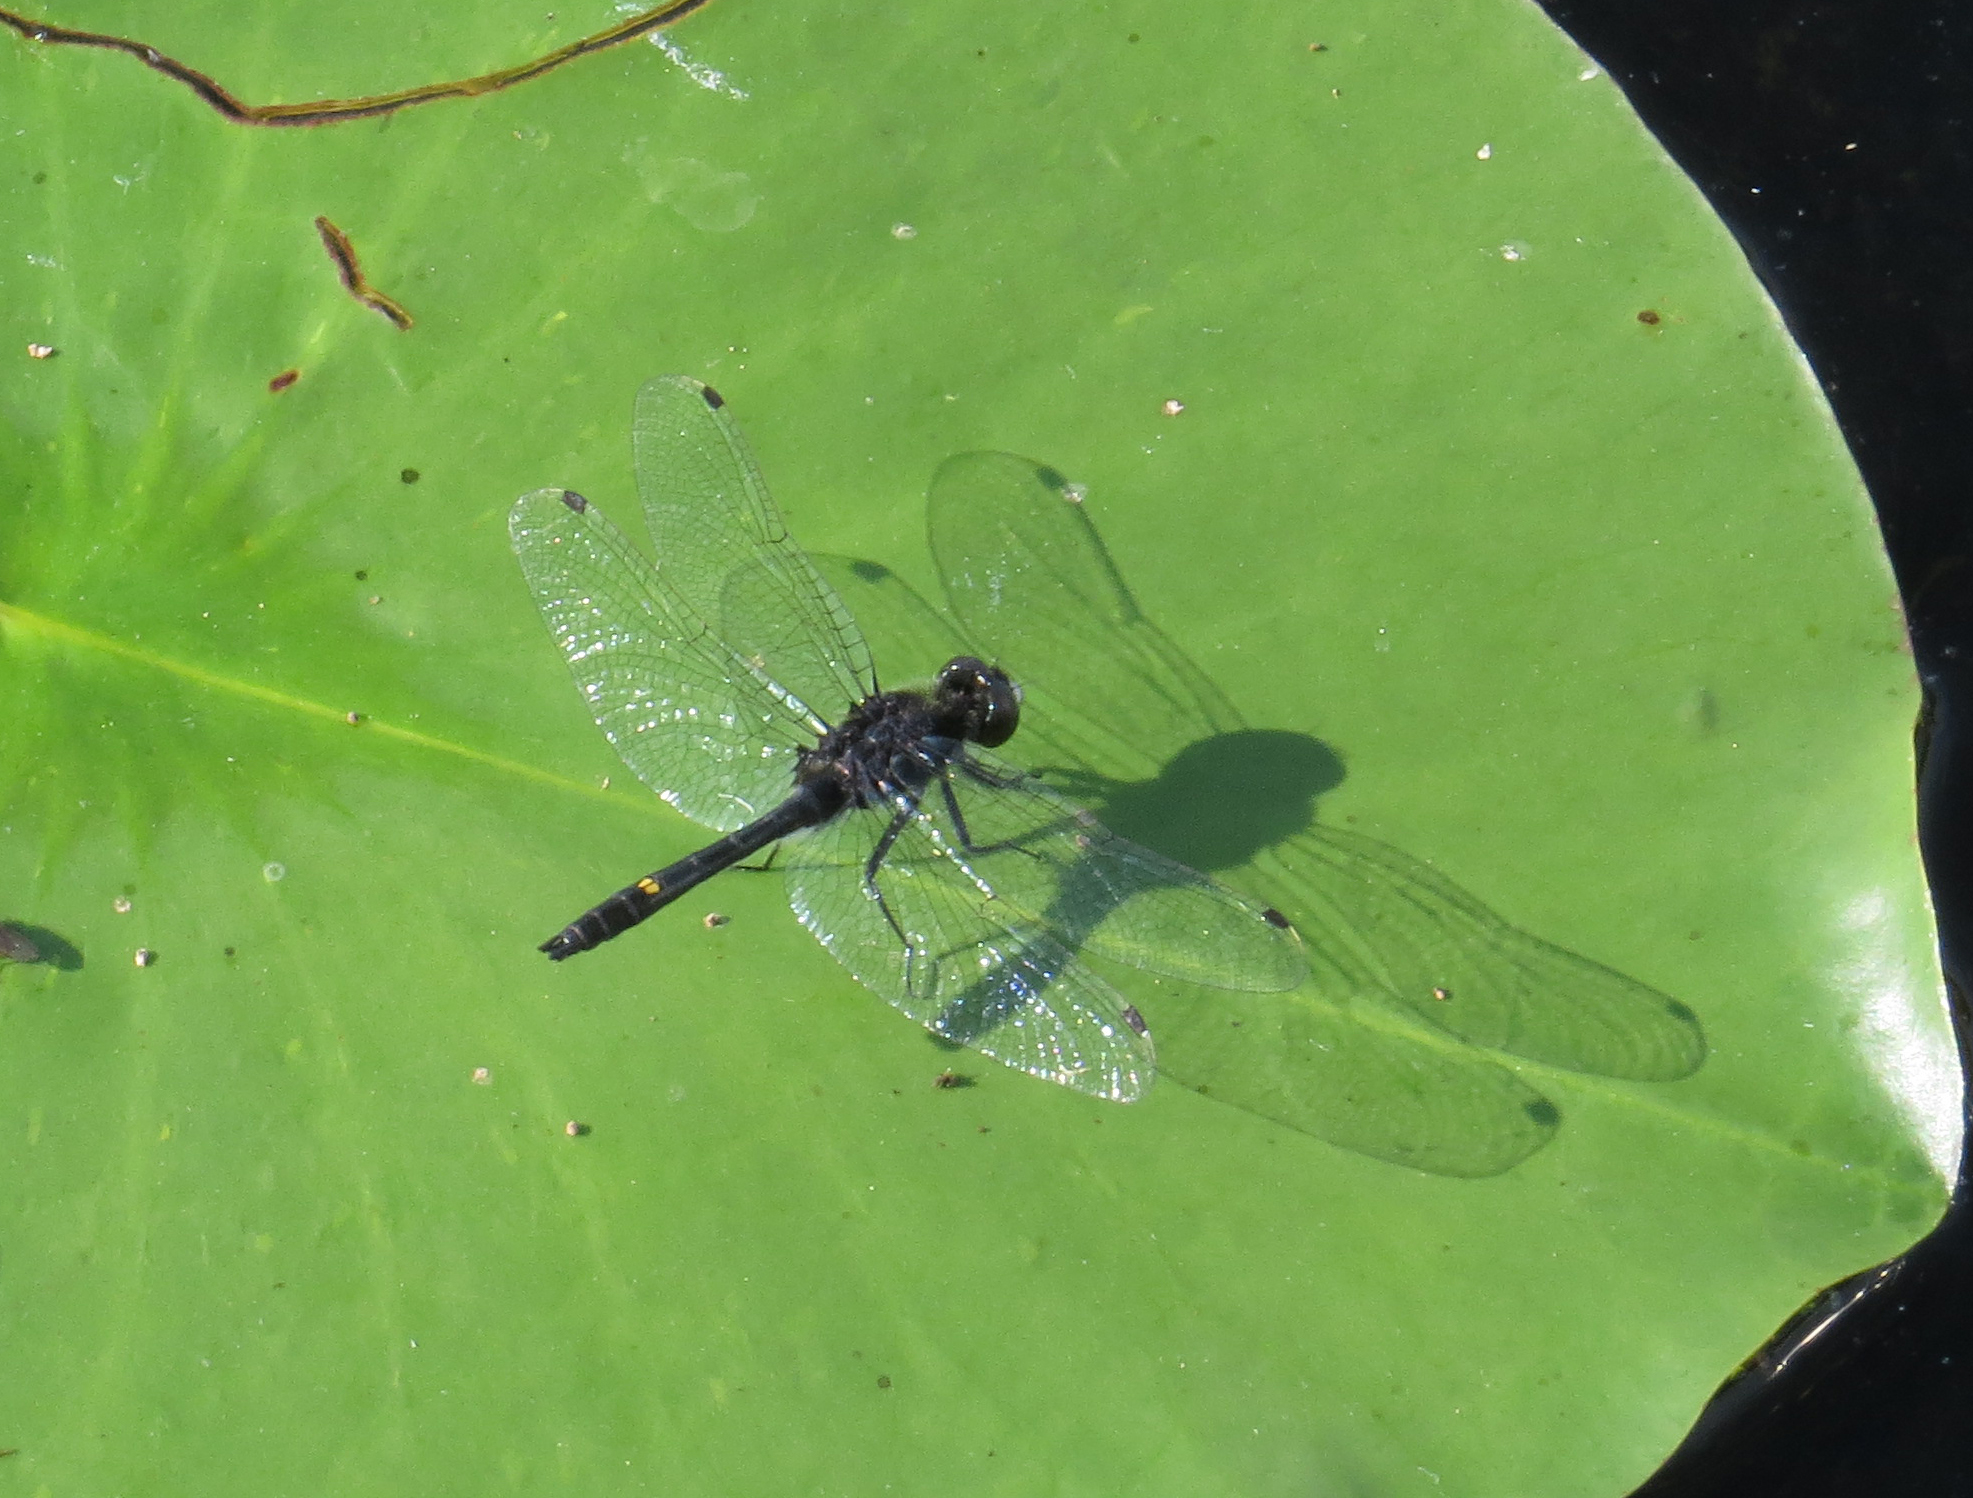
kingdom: Animalia
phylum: Arthropoda
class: Insecta
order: Odonata
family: Libellulidae
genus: Leucorrhinia
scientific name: Leucorrhinia intacta
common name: Dot-tailed whiteface
